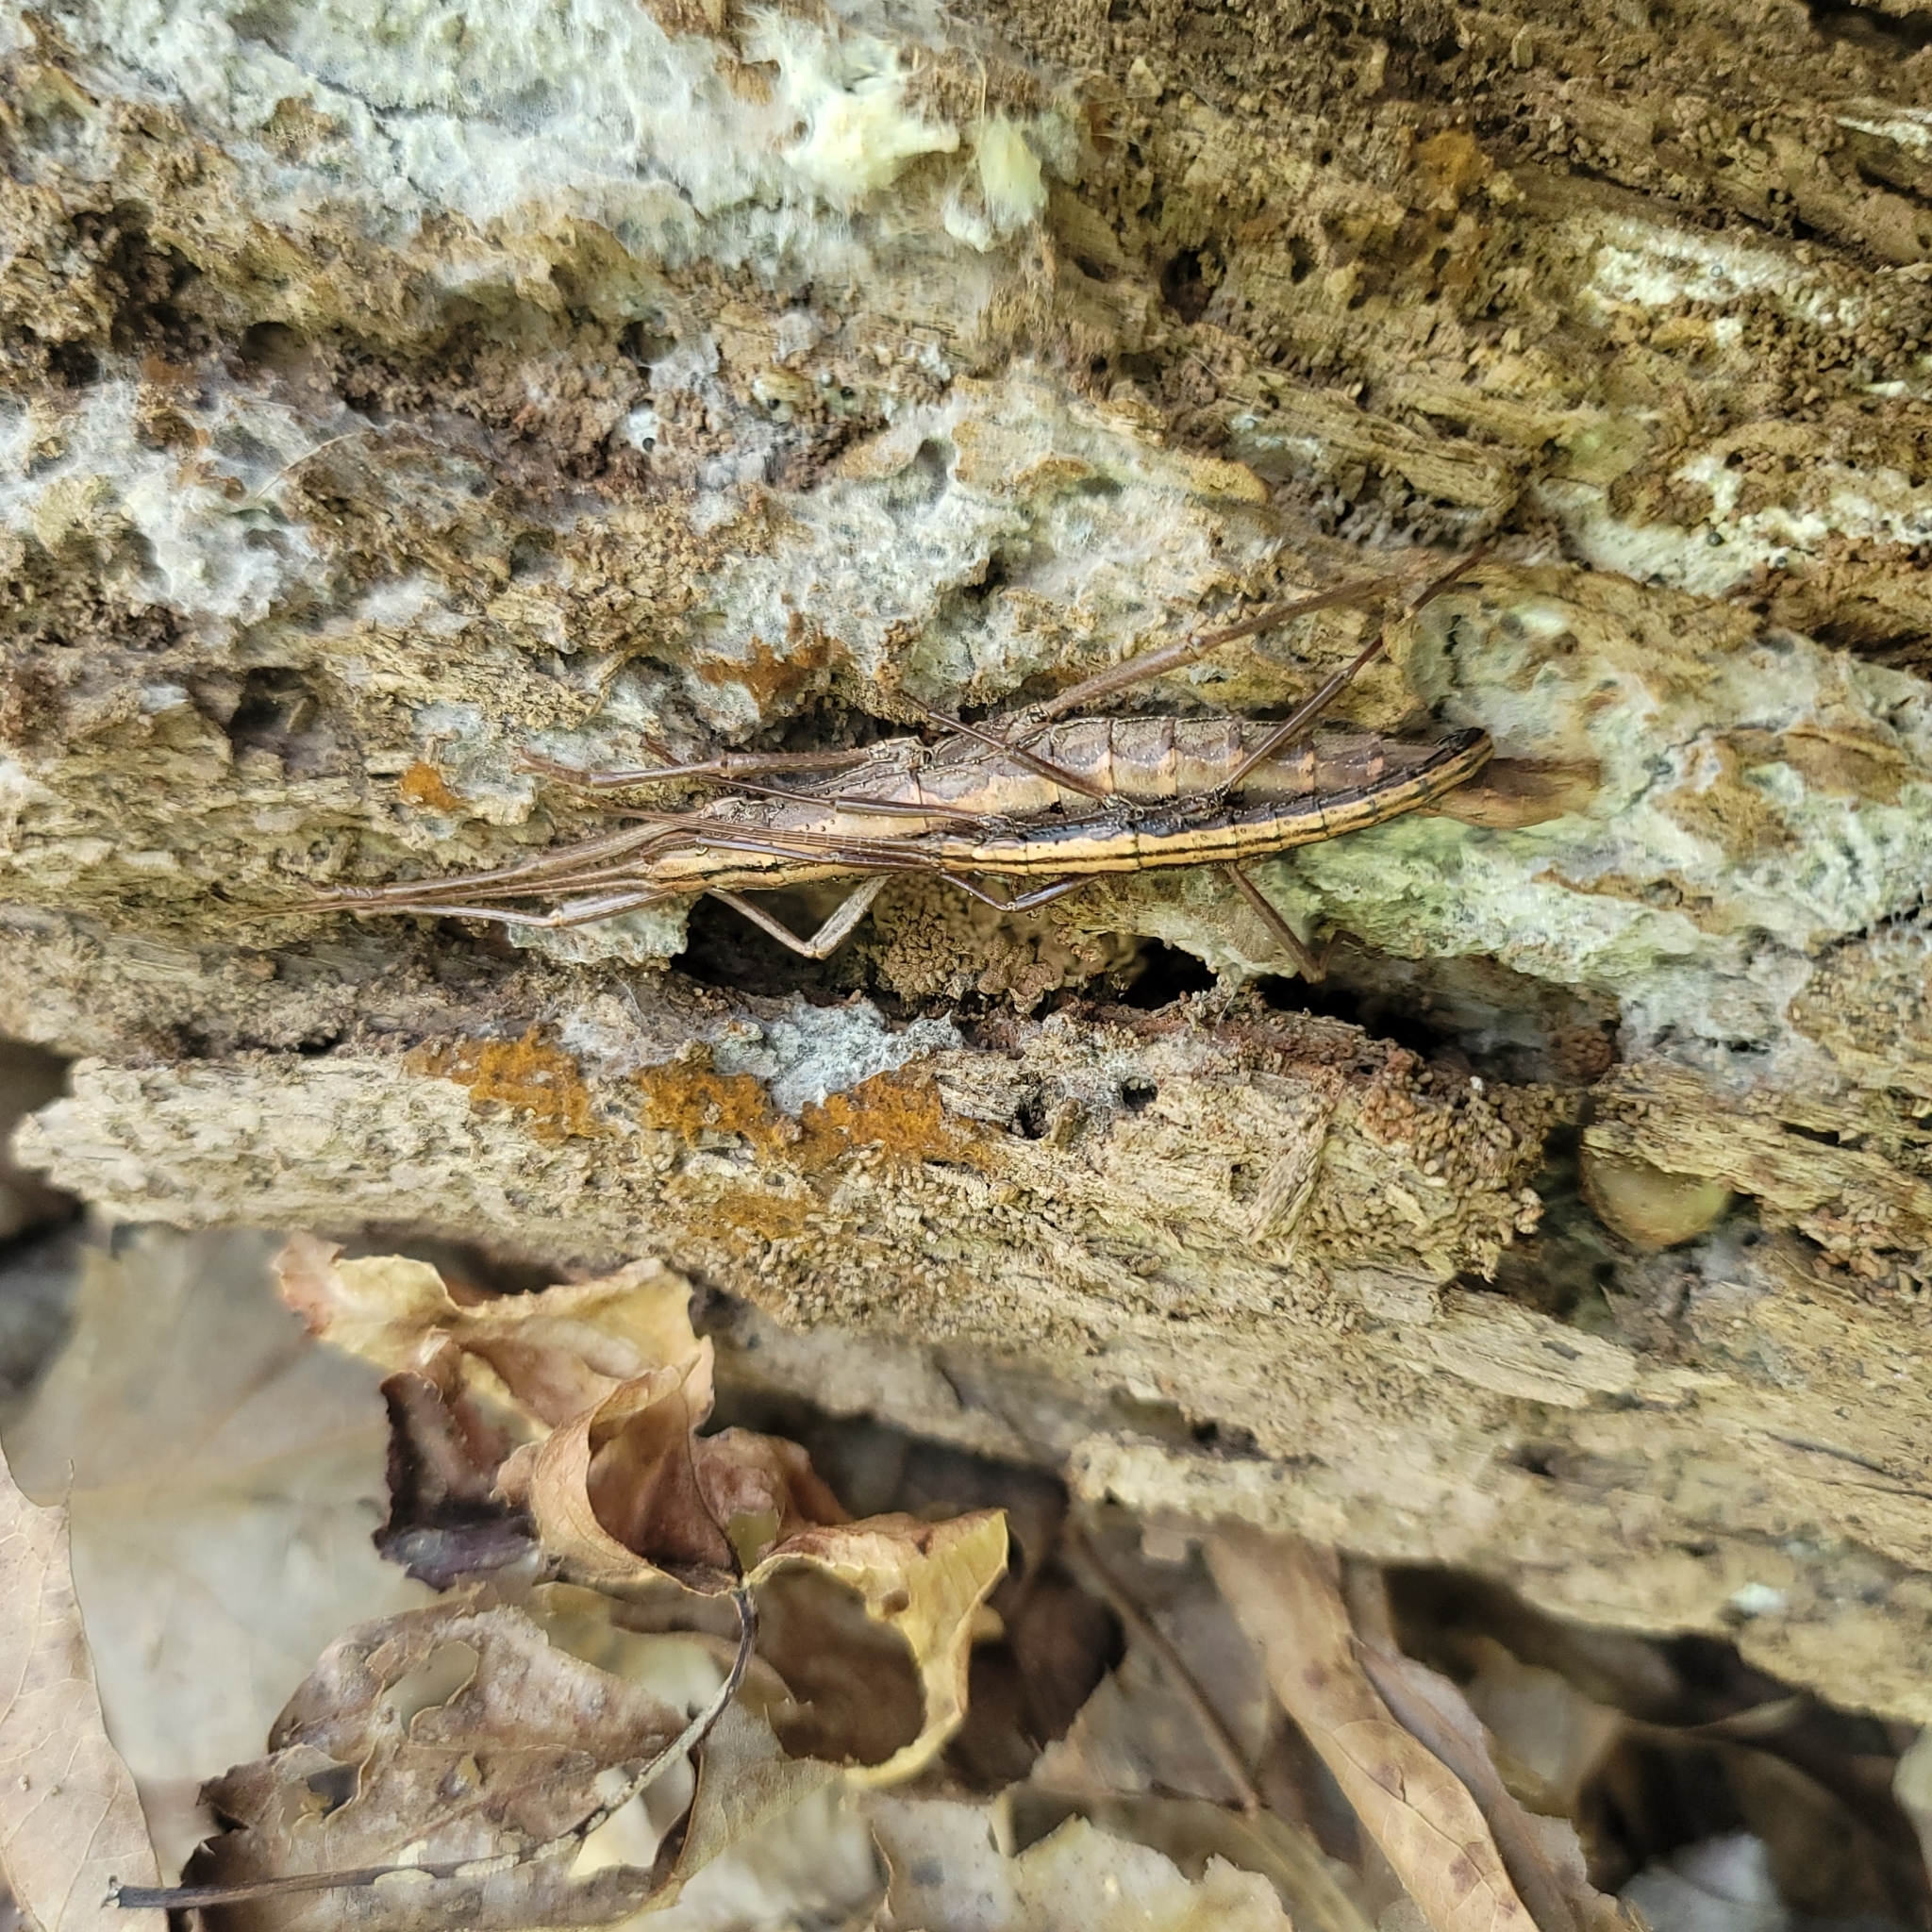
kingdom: Animalia
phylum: Arthropoda
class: Insecta
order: Phasmida
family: Pseudophasmatidae
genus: Anisomorpha
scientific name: Anisomorpha ferruginea
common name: Dark walkingstick
